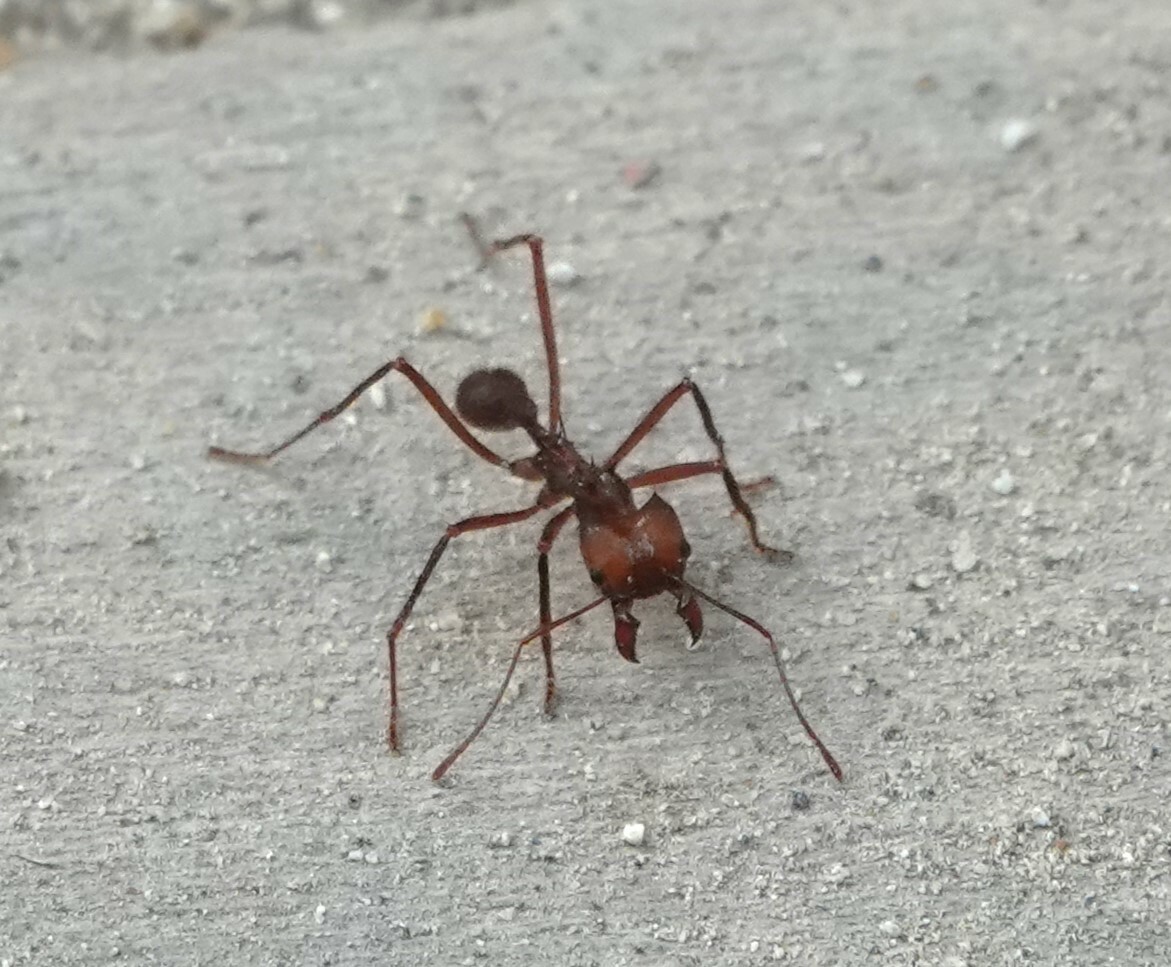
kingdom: Animalia
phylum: Arthropoda
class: Insecta
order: Hymenoptera
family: Formicidae
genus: Atta
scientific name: Atta cephalotes
